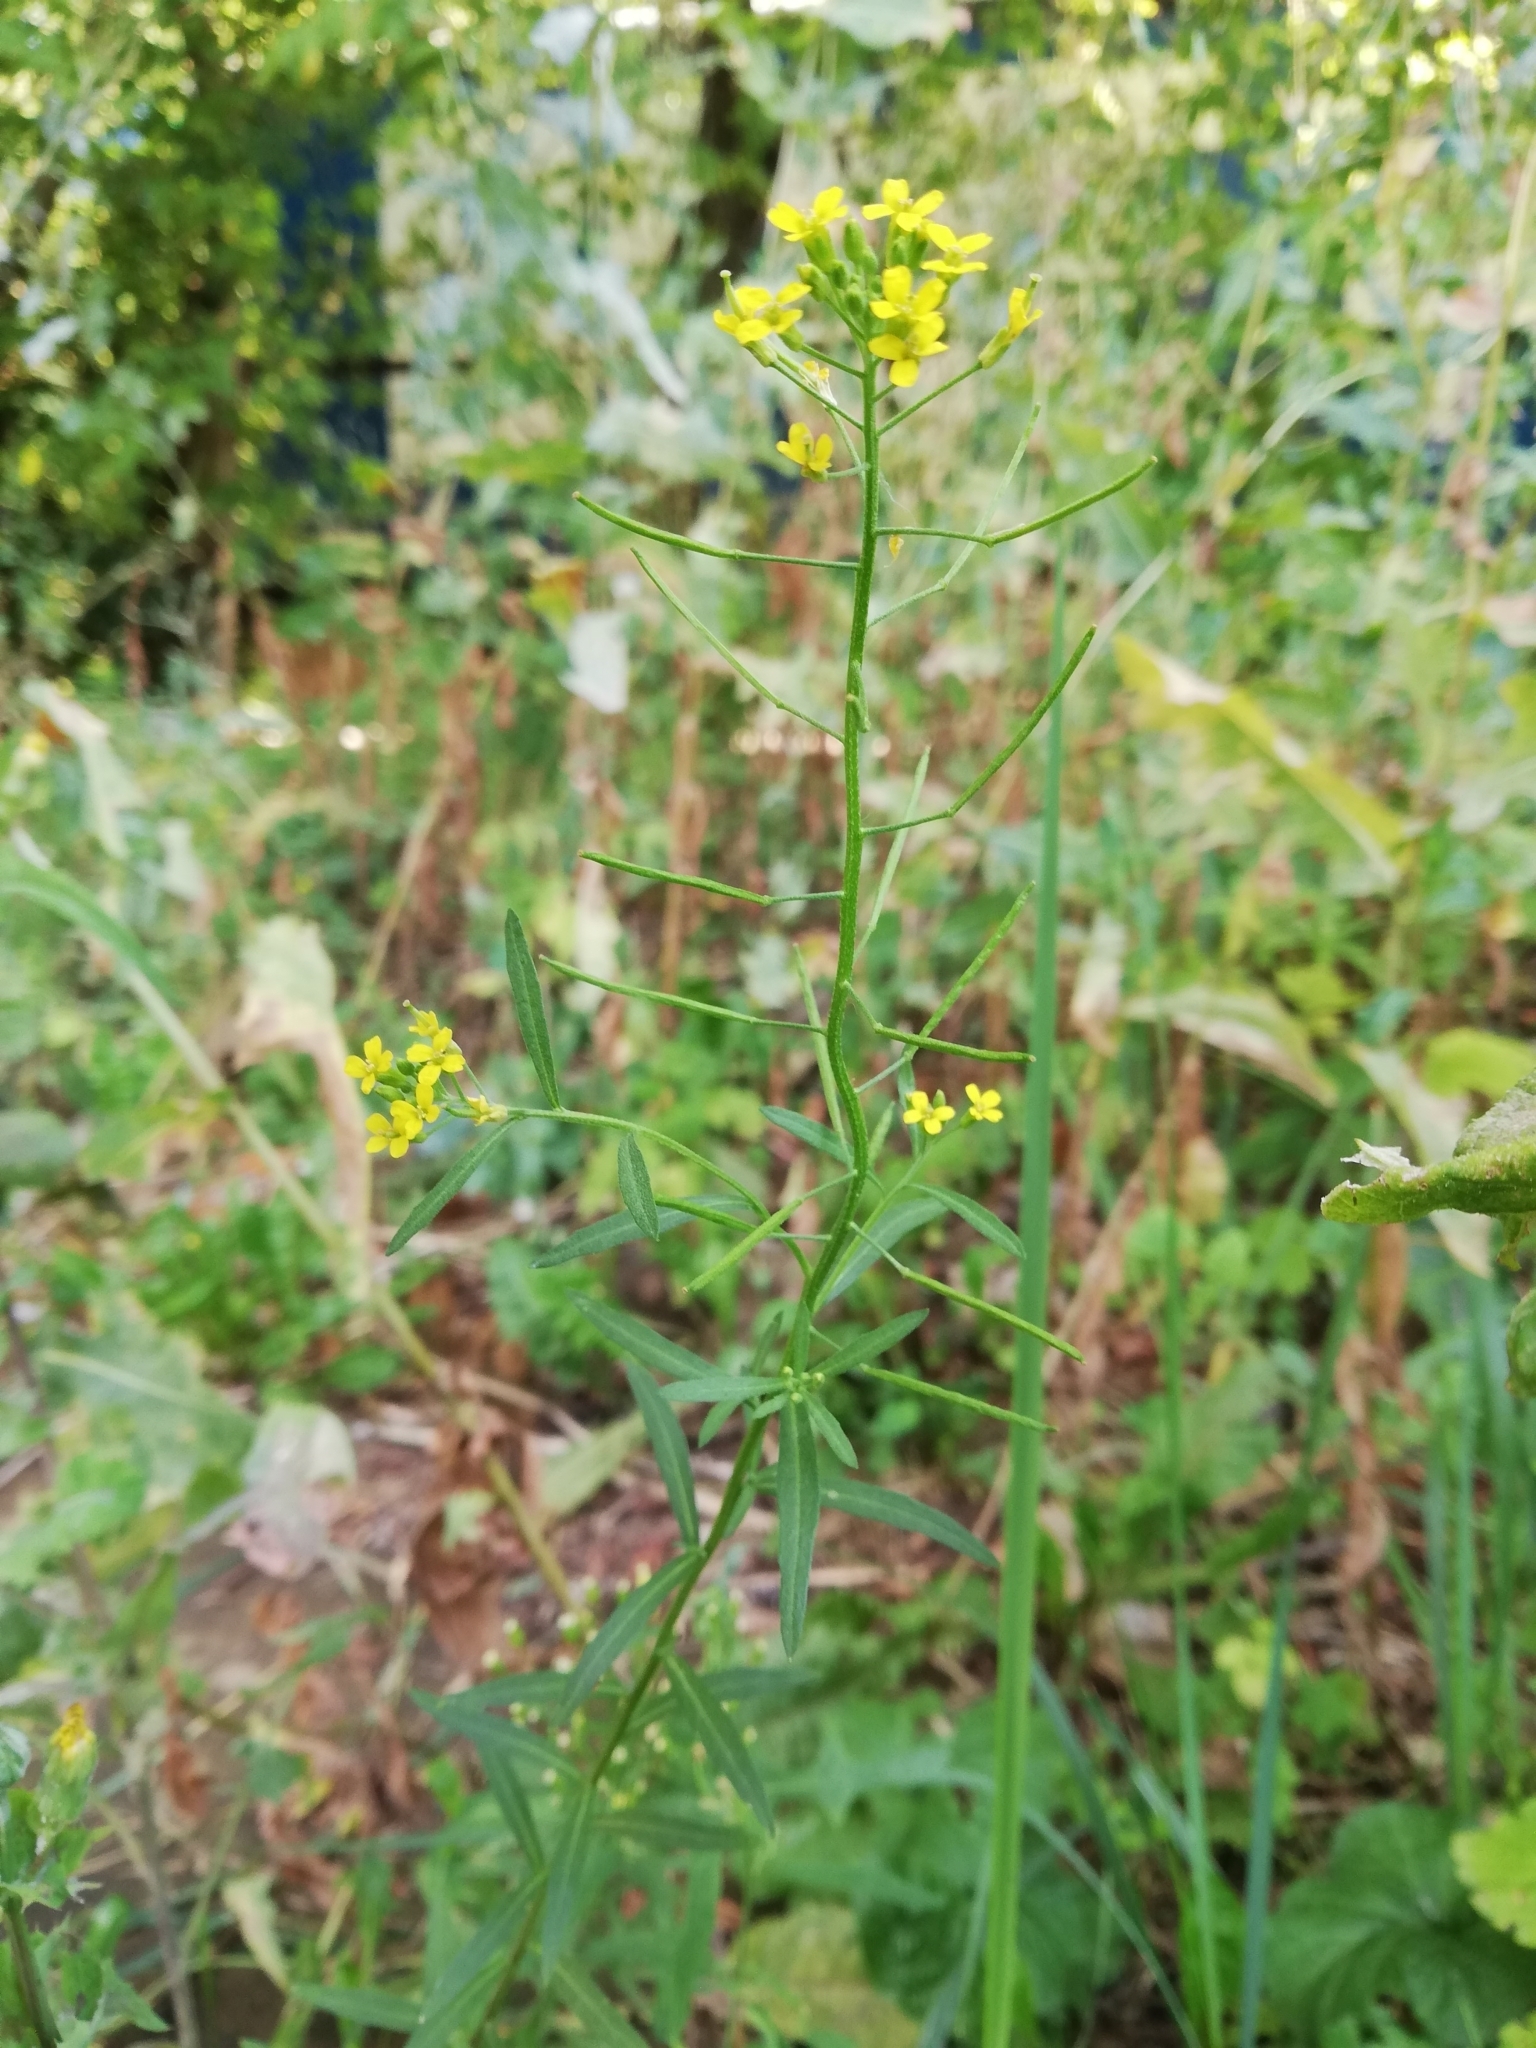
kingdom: Plantae
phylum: Tracheophyta
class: Magnoliopsida
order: Brassicales
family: Brassicaceae
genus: Erysimum
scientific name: Erysimum cheiranthoides
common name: Treacle mustard
